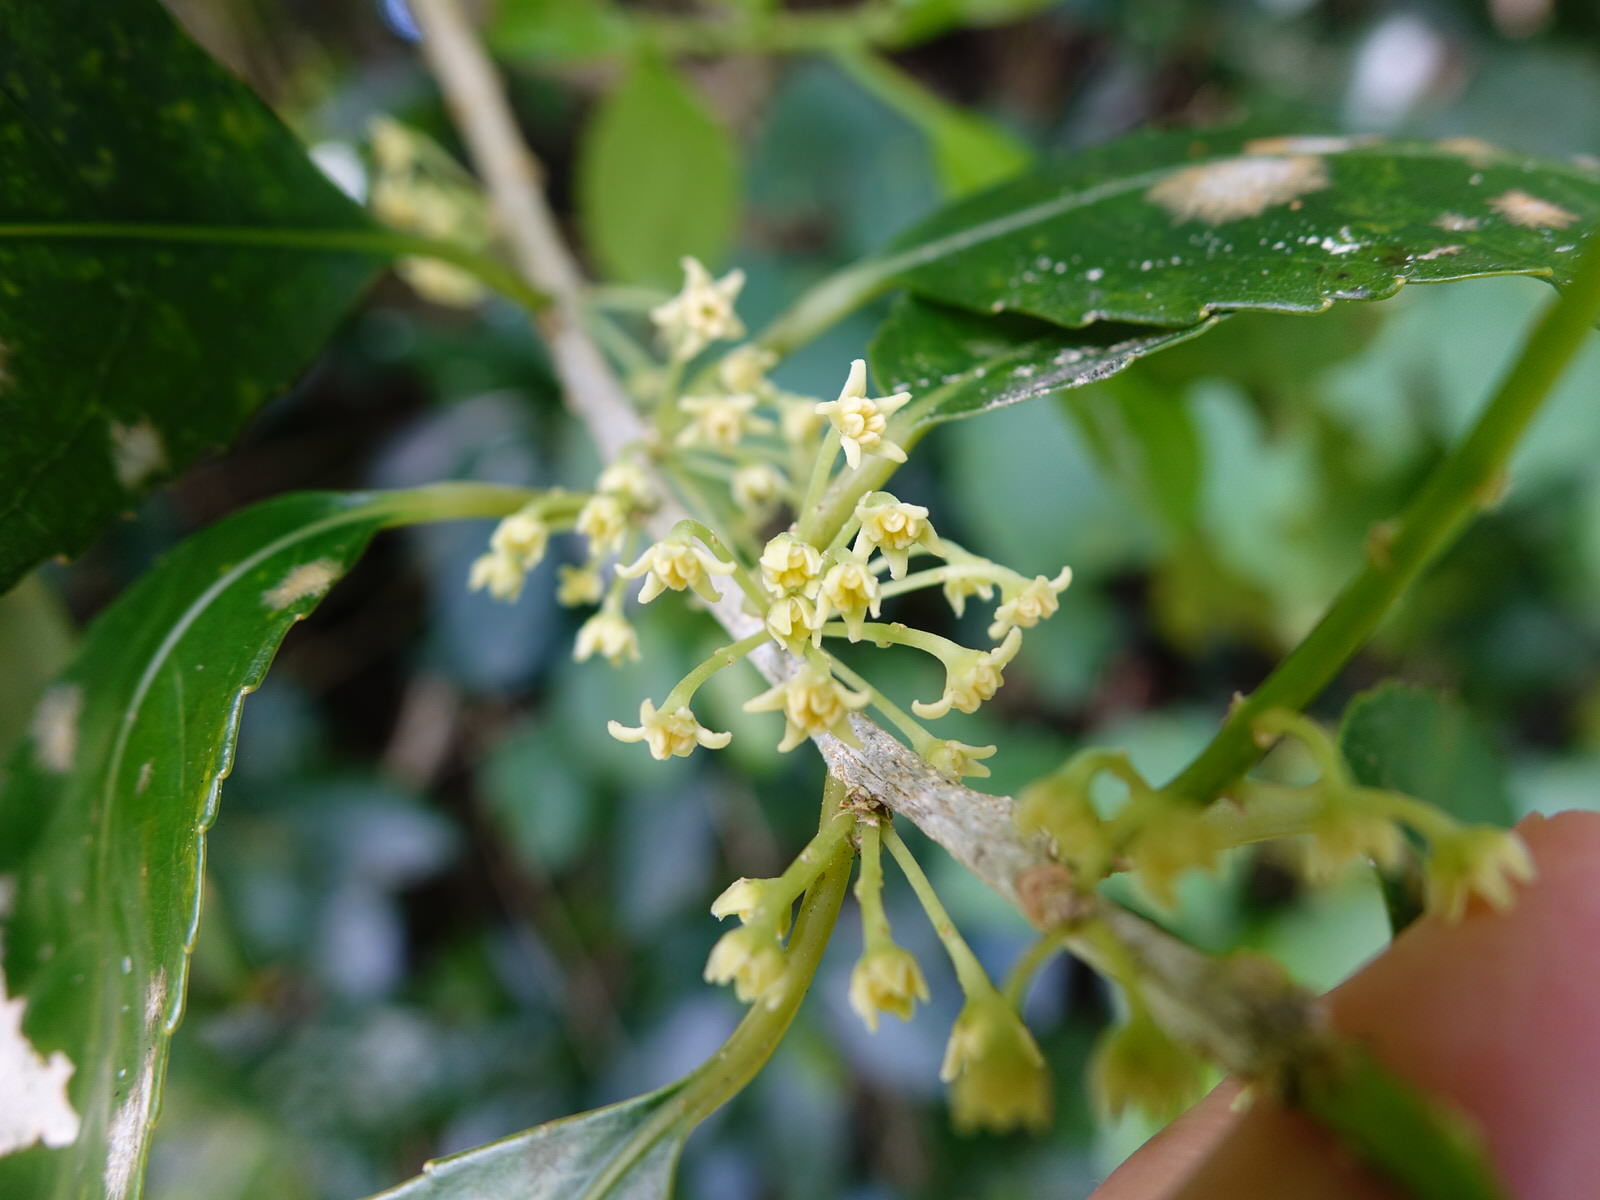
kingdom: Plantae
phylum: Tracheophyta
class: Magnoliopsida
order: Malpighiales
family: Violaceae
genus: Melicytus
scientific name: Melicytus ramiflorus
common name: Mahoe
